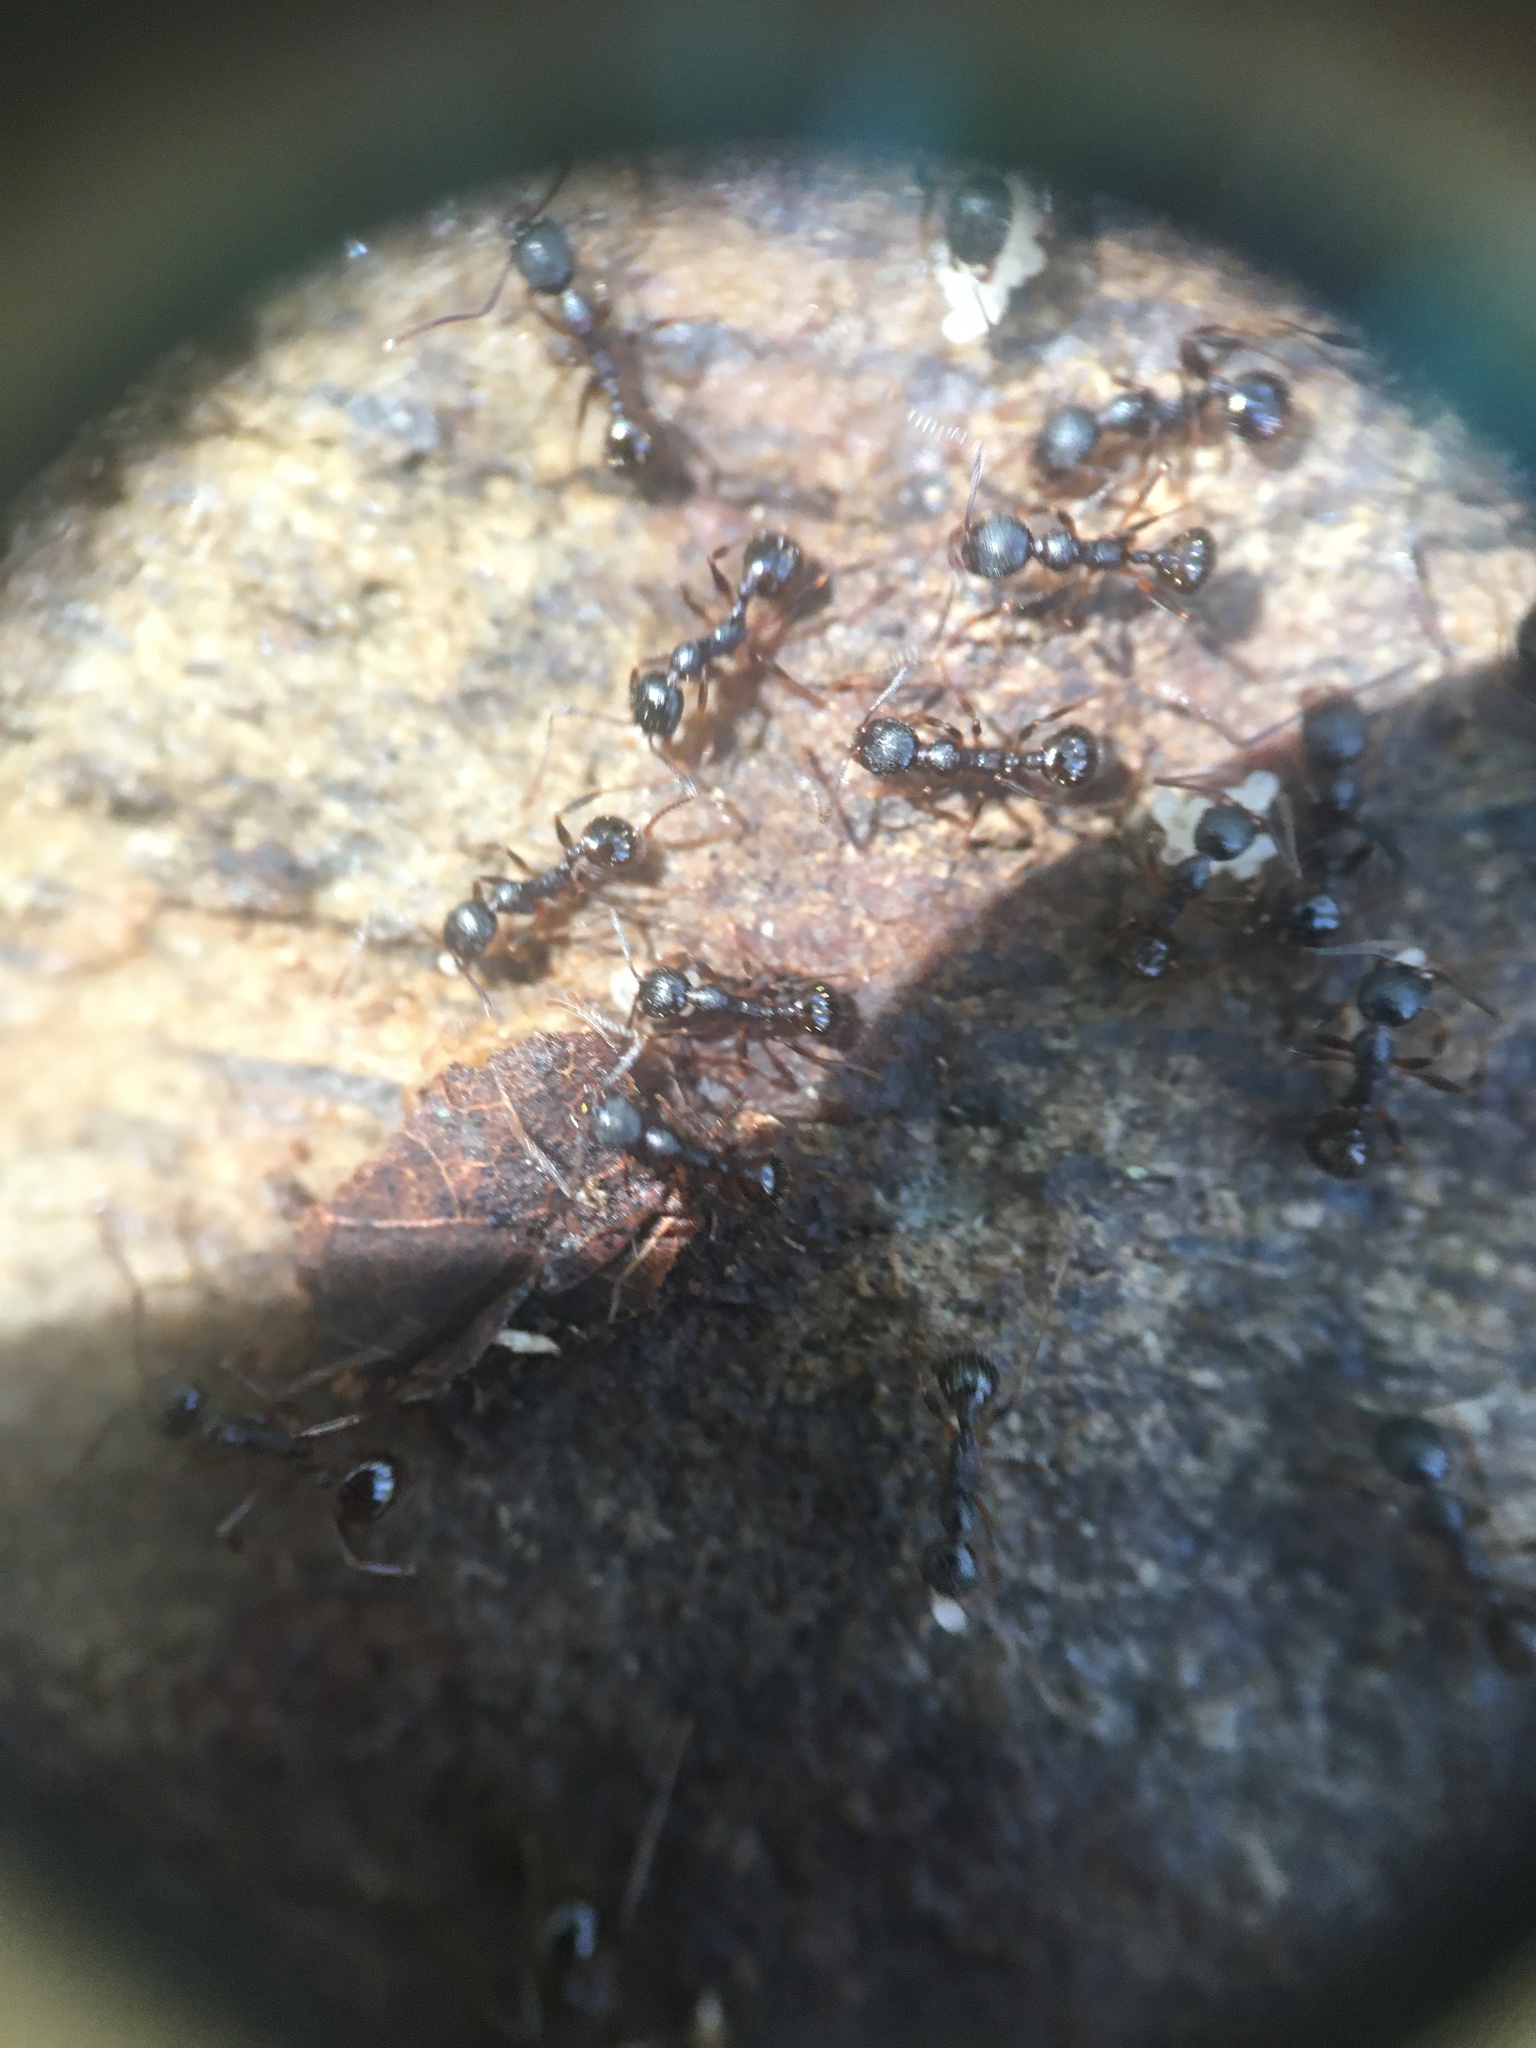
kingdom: Animalia
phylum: Arthropoda
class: Insecta
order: Hymenoptera
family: Formicidae
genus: Aphaenogaster
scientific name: Aphaenogaster picea
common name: Pitch-black collared ant
